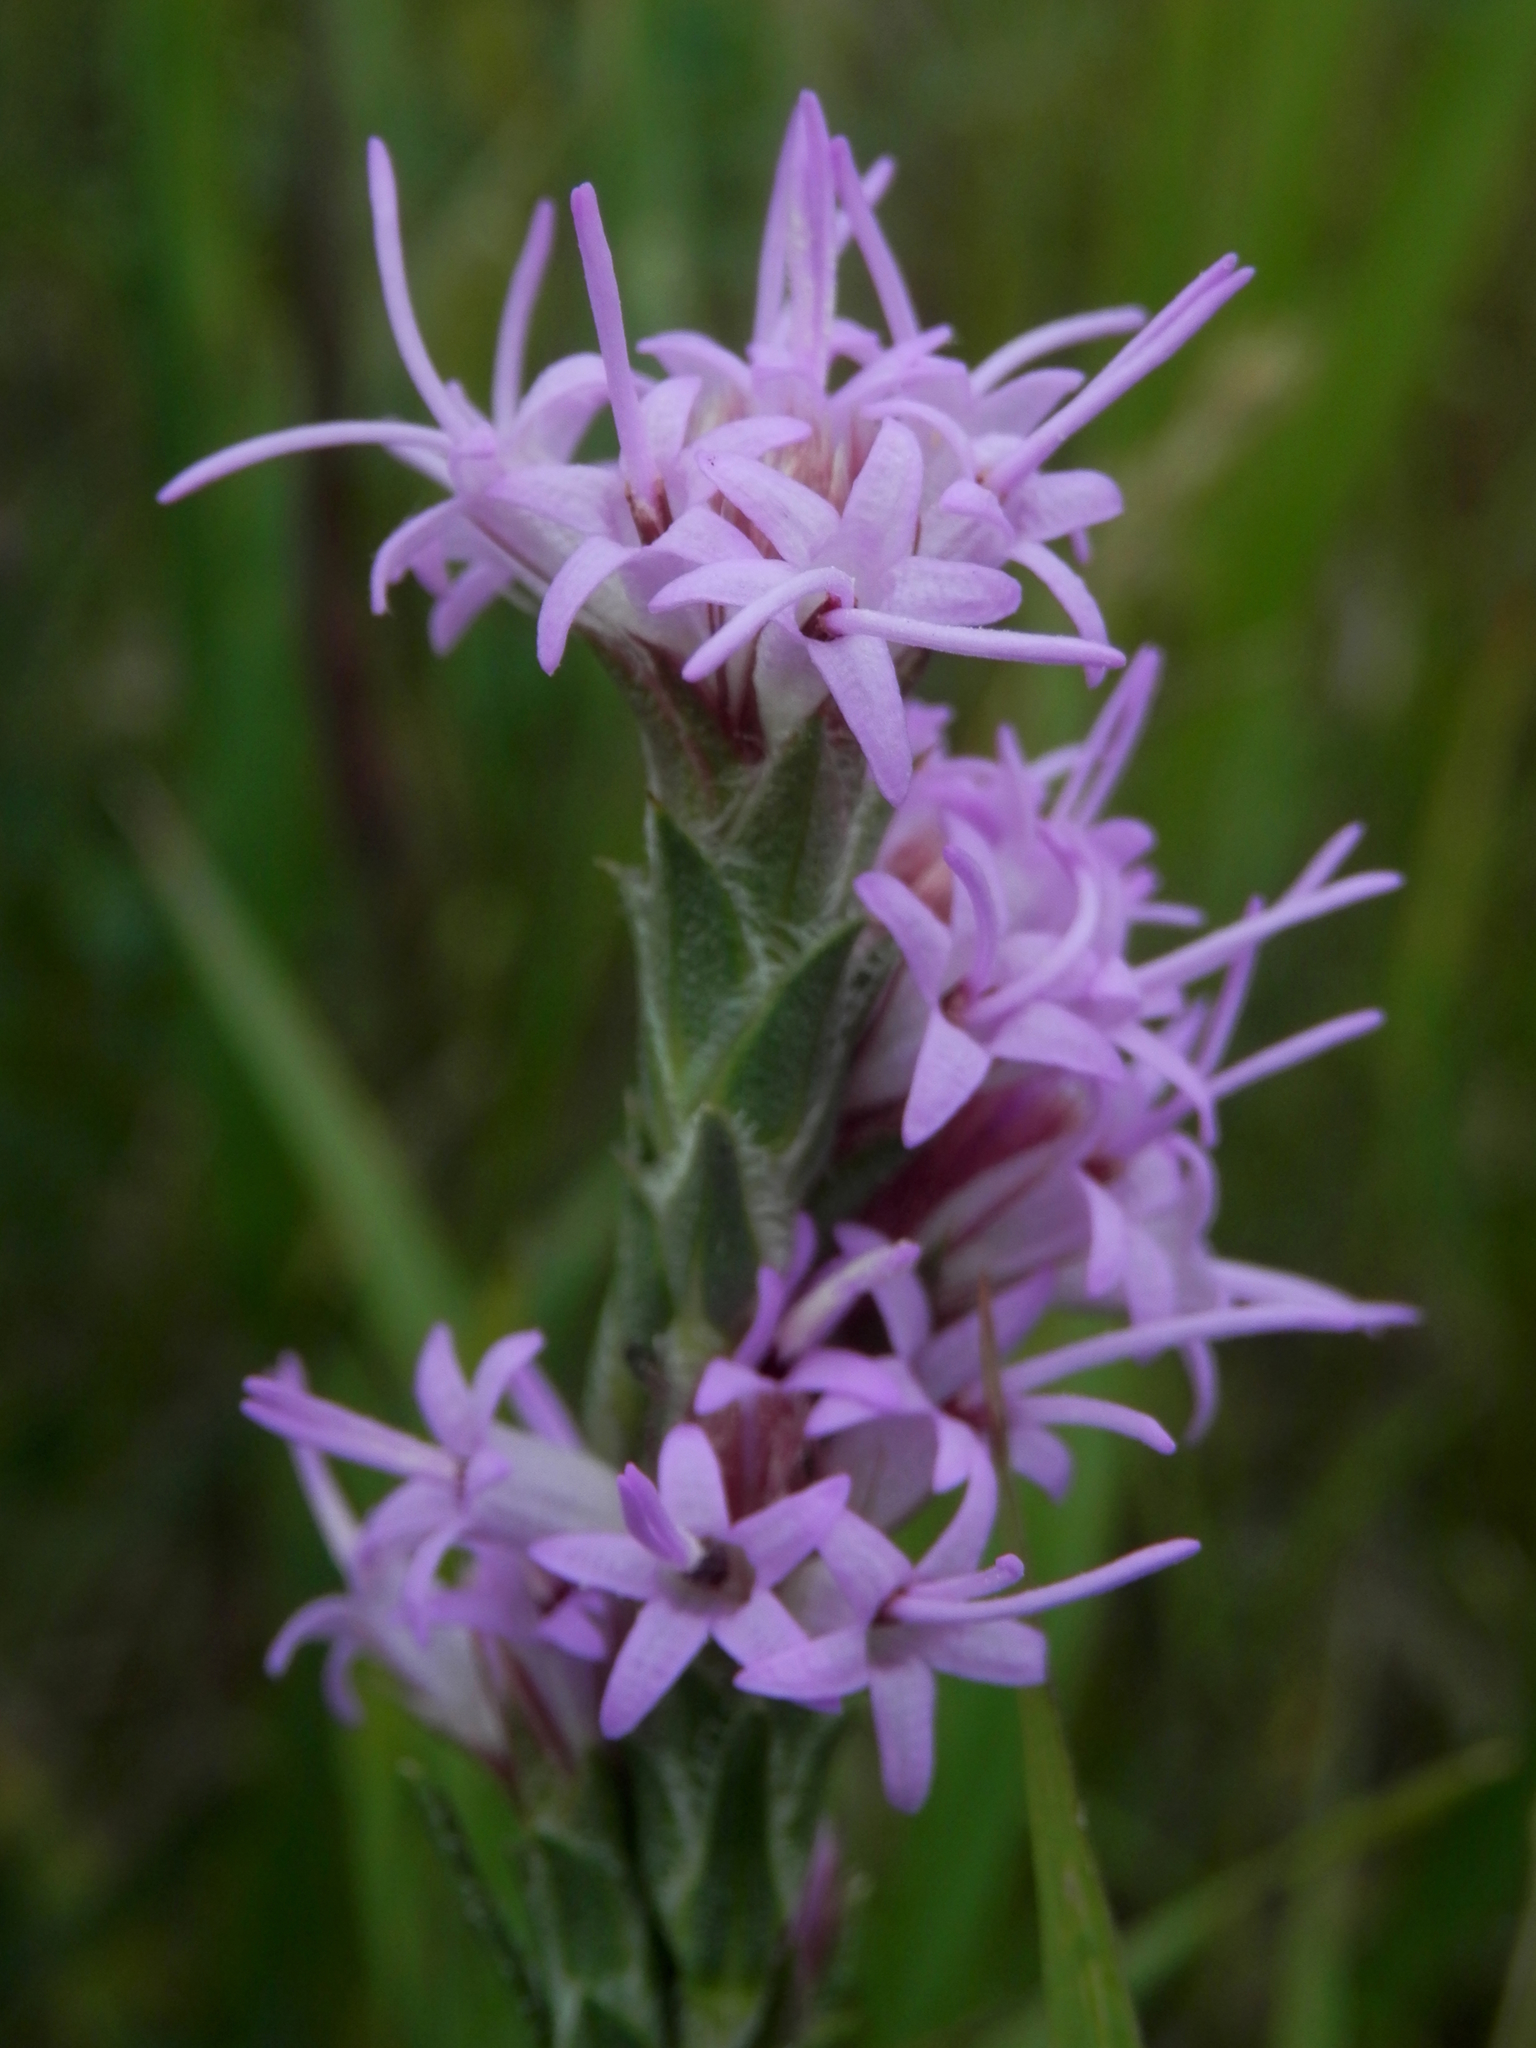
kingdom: Plantae
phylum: Tracheophyta
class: Magnoliopsida
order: Asterales
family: Asteraceae
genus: Liatris
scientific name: Liatris punctata
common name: Dotted gayfeather
